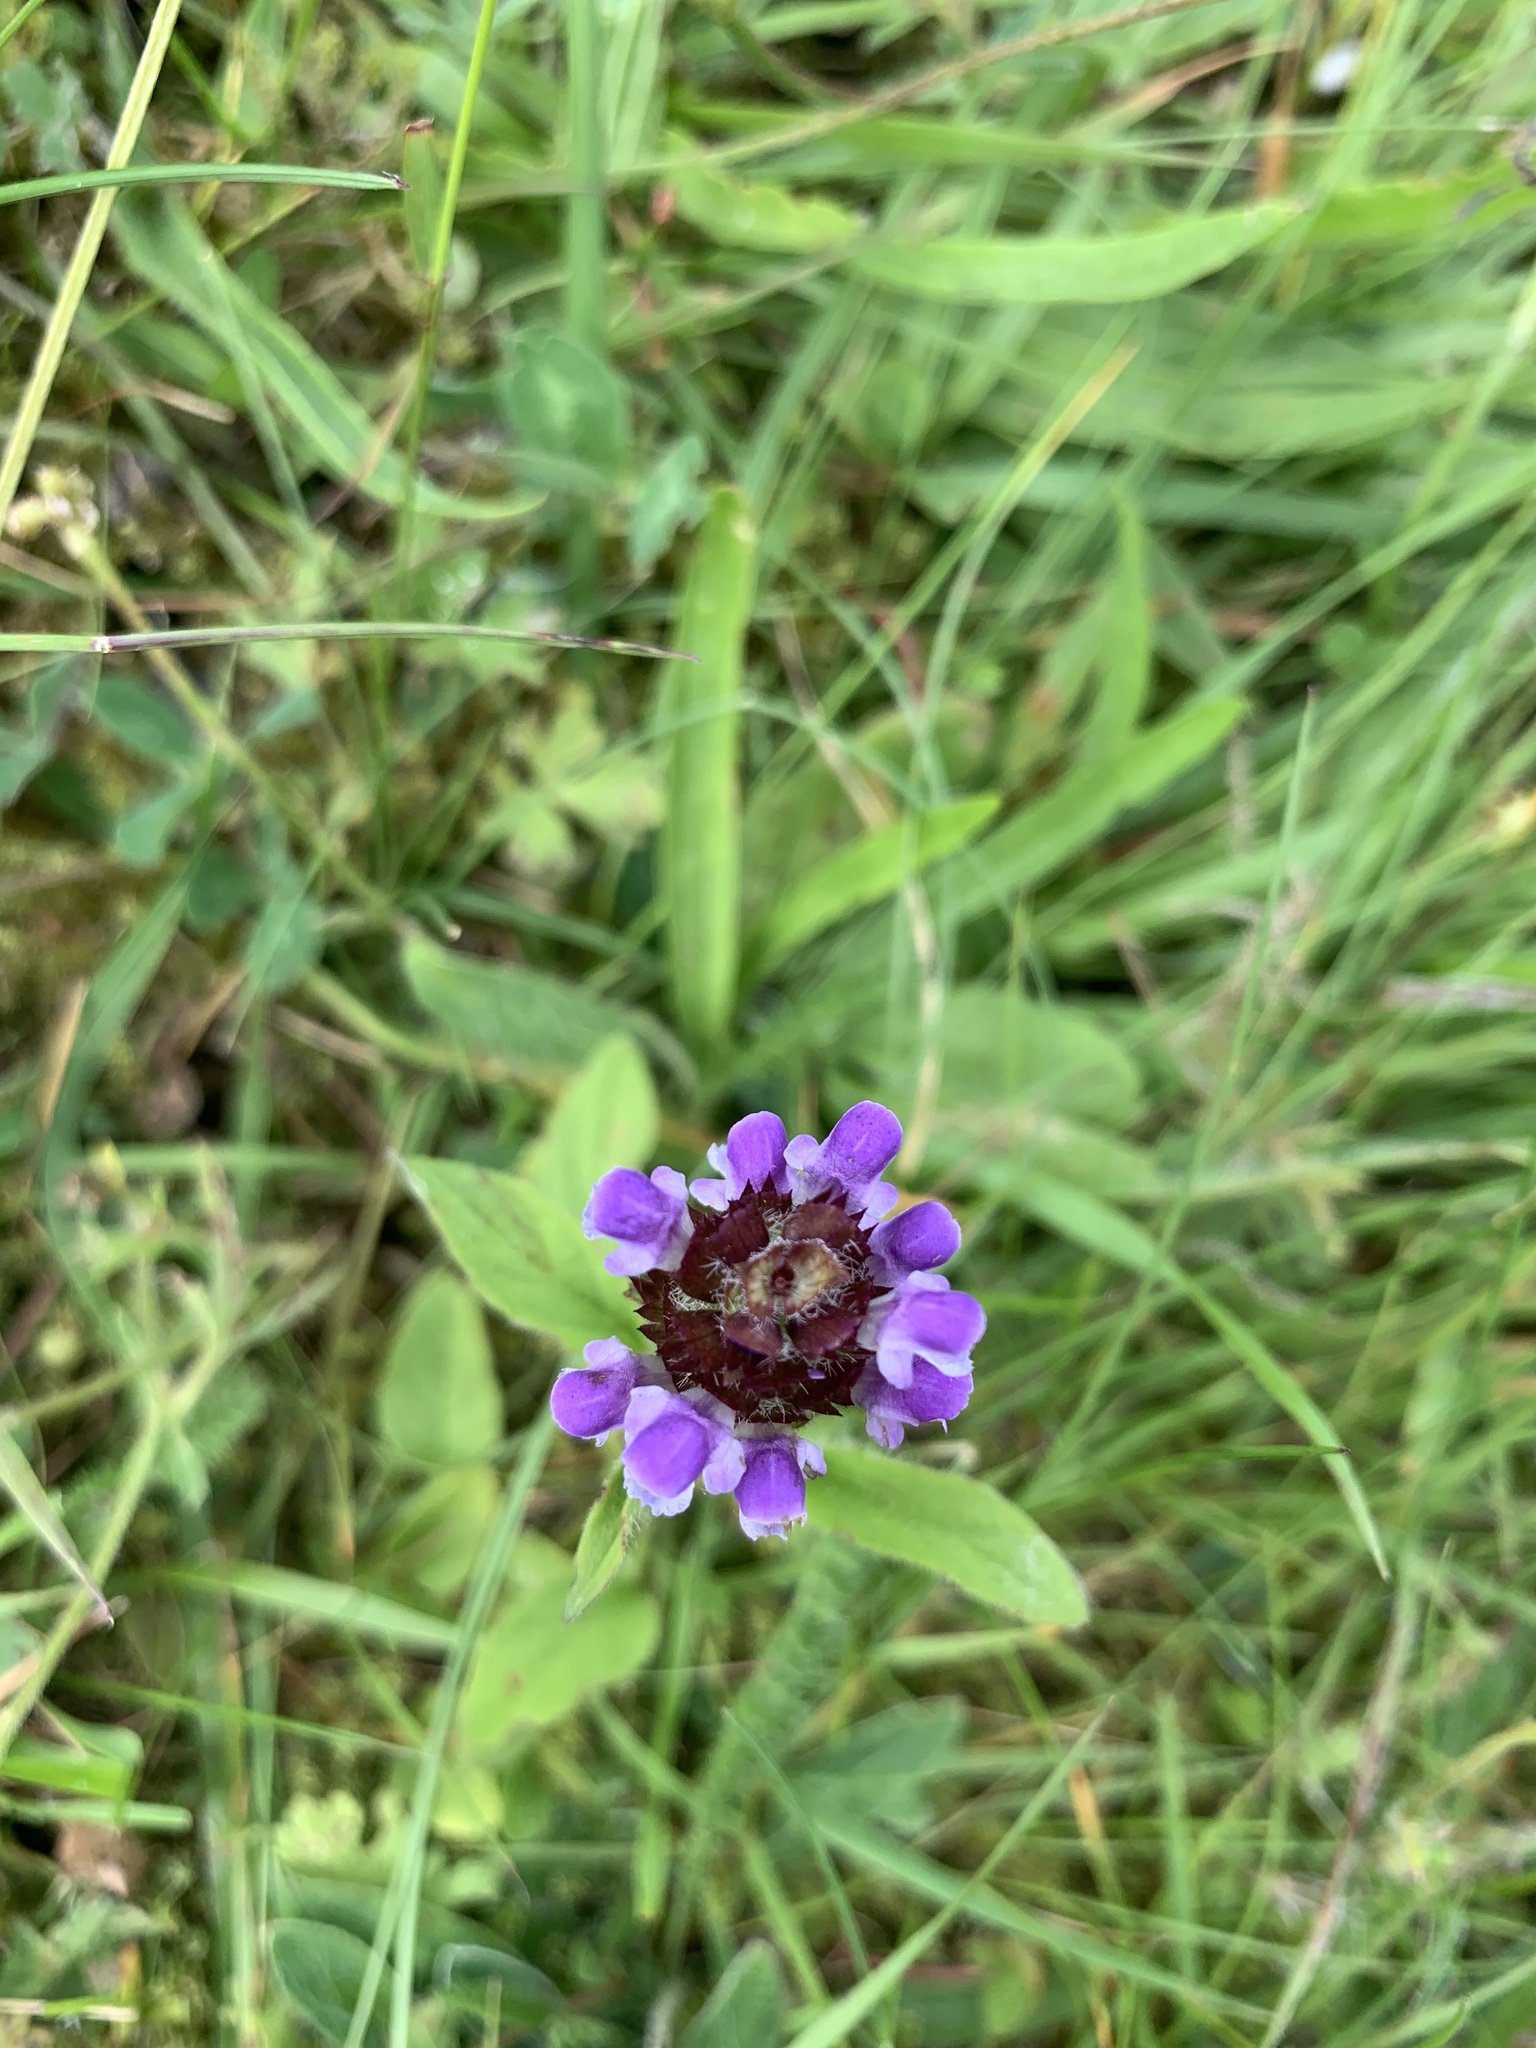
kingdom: Plantae
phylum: Tracheophyta
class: Magnoliopsida
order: Lamiales
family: Lamiaceae
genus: Prunella
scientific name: Prunella vulgaris
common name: Heal-all
